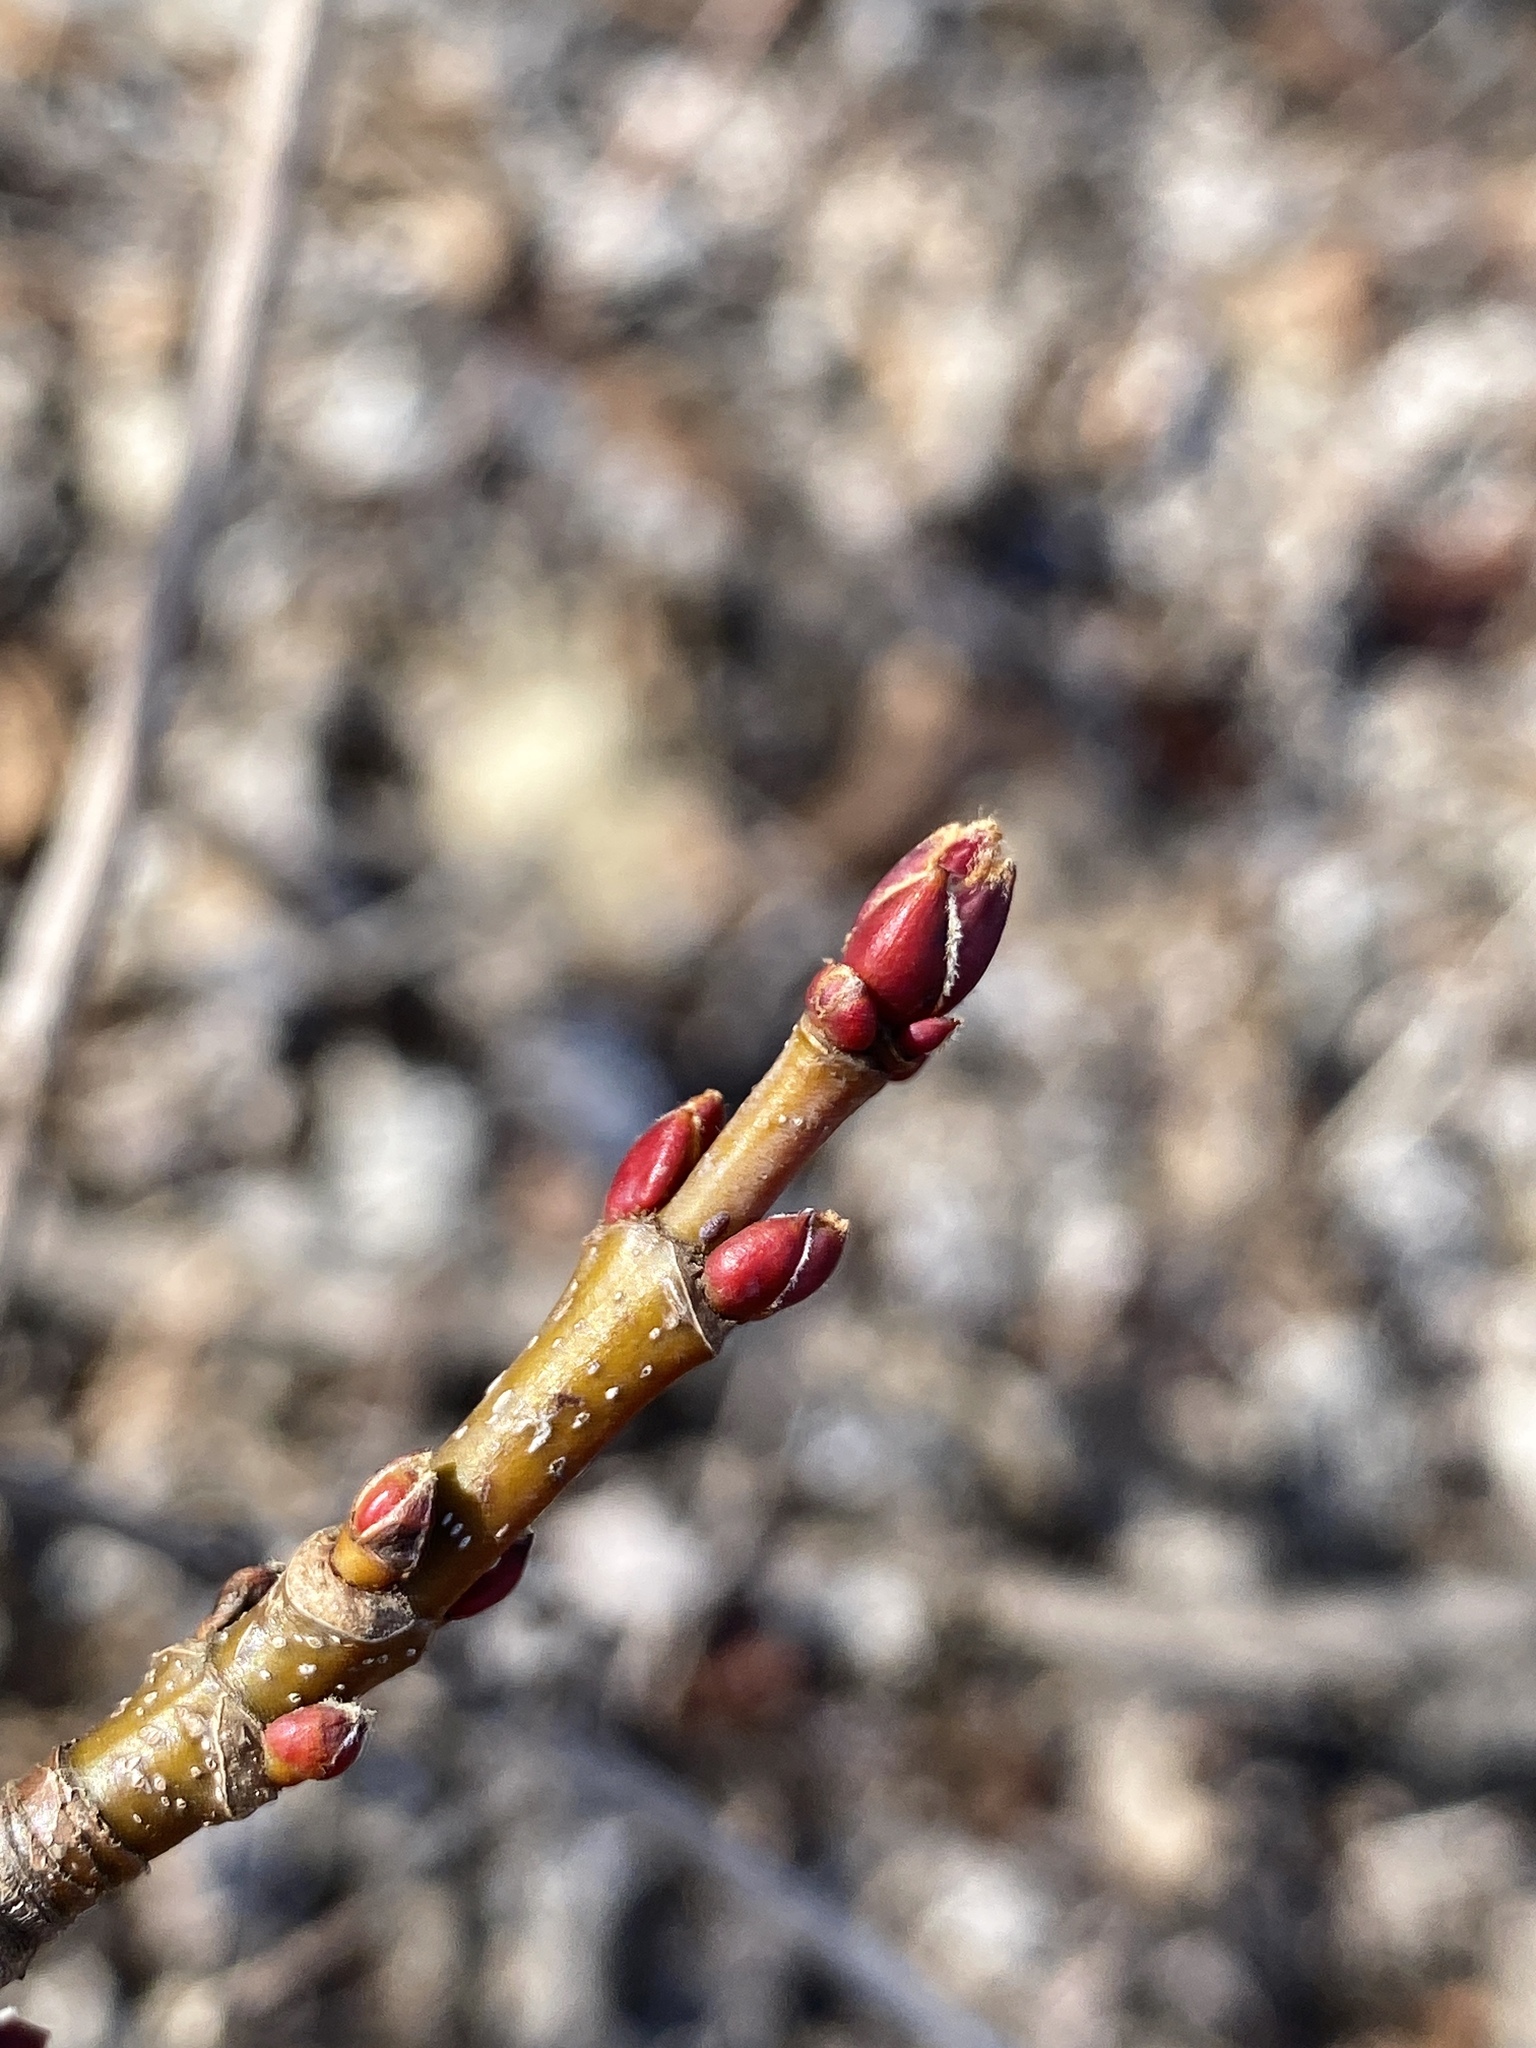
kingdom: Plantae
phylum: Tracheophyta
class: Magnoliopsida
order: Sapindales
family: Sapindaceae
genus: Acer
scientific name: Acer saccharinum
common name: Silver maple
